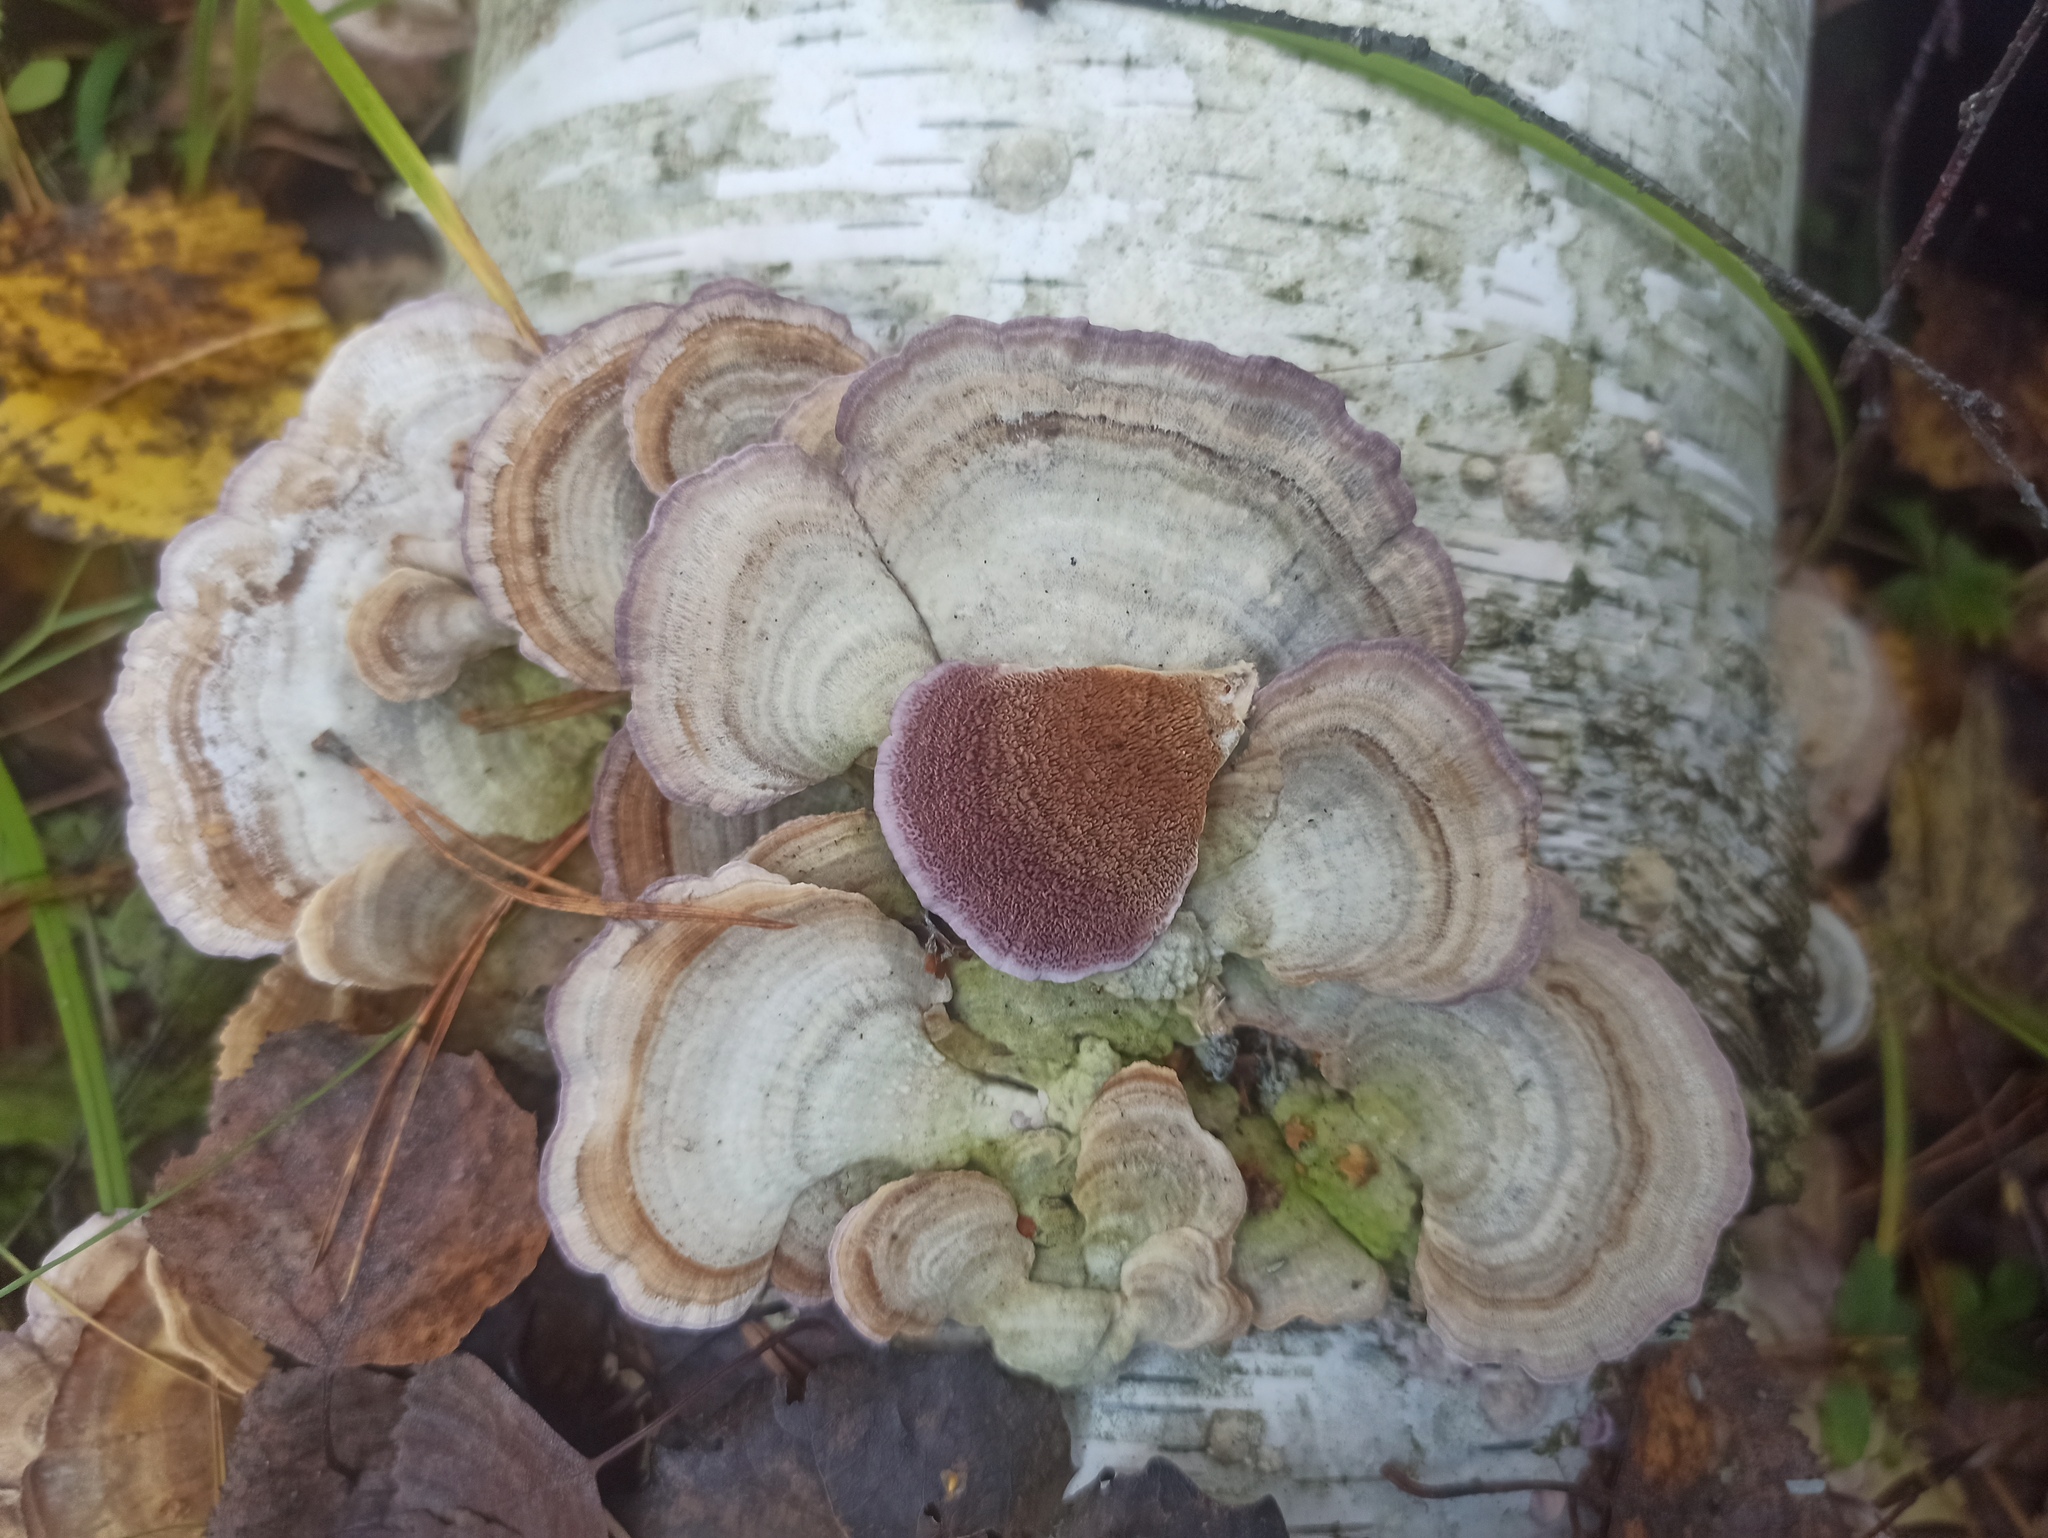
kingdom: Fungi
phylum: Basidiomycota
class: Agaricomycetes
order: Hymenochaetales
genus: Trichaptum
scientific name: Trichaptum biforme
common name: Violet-toothed polypore
